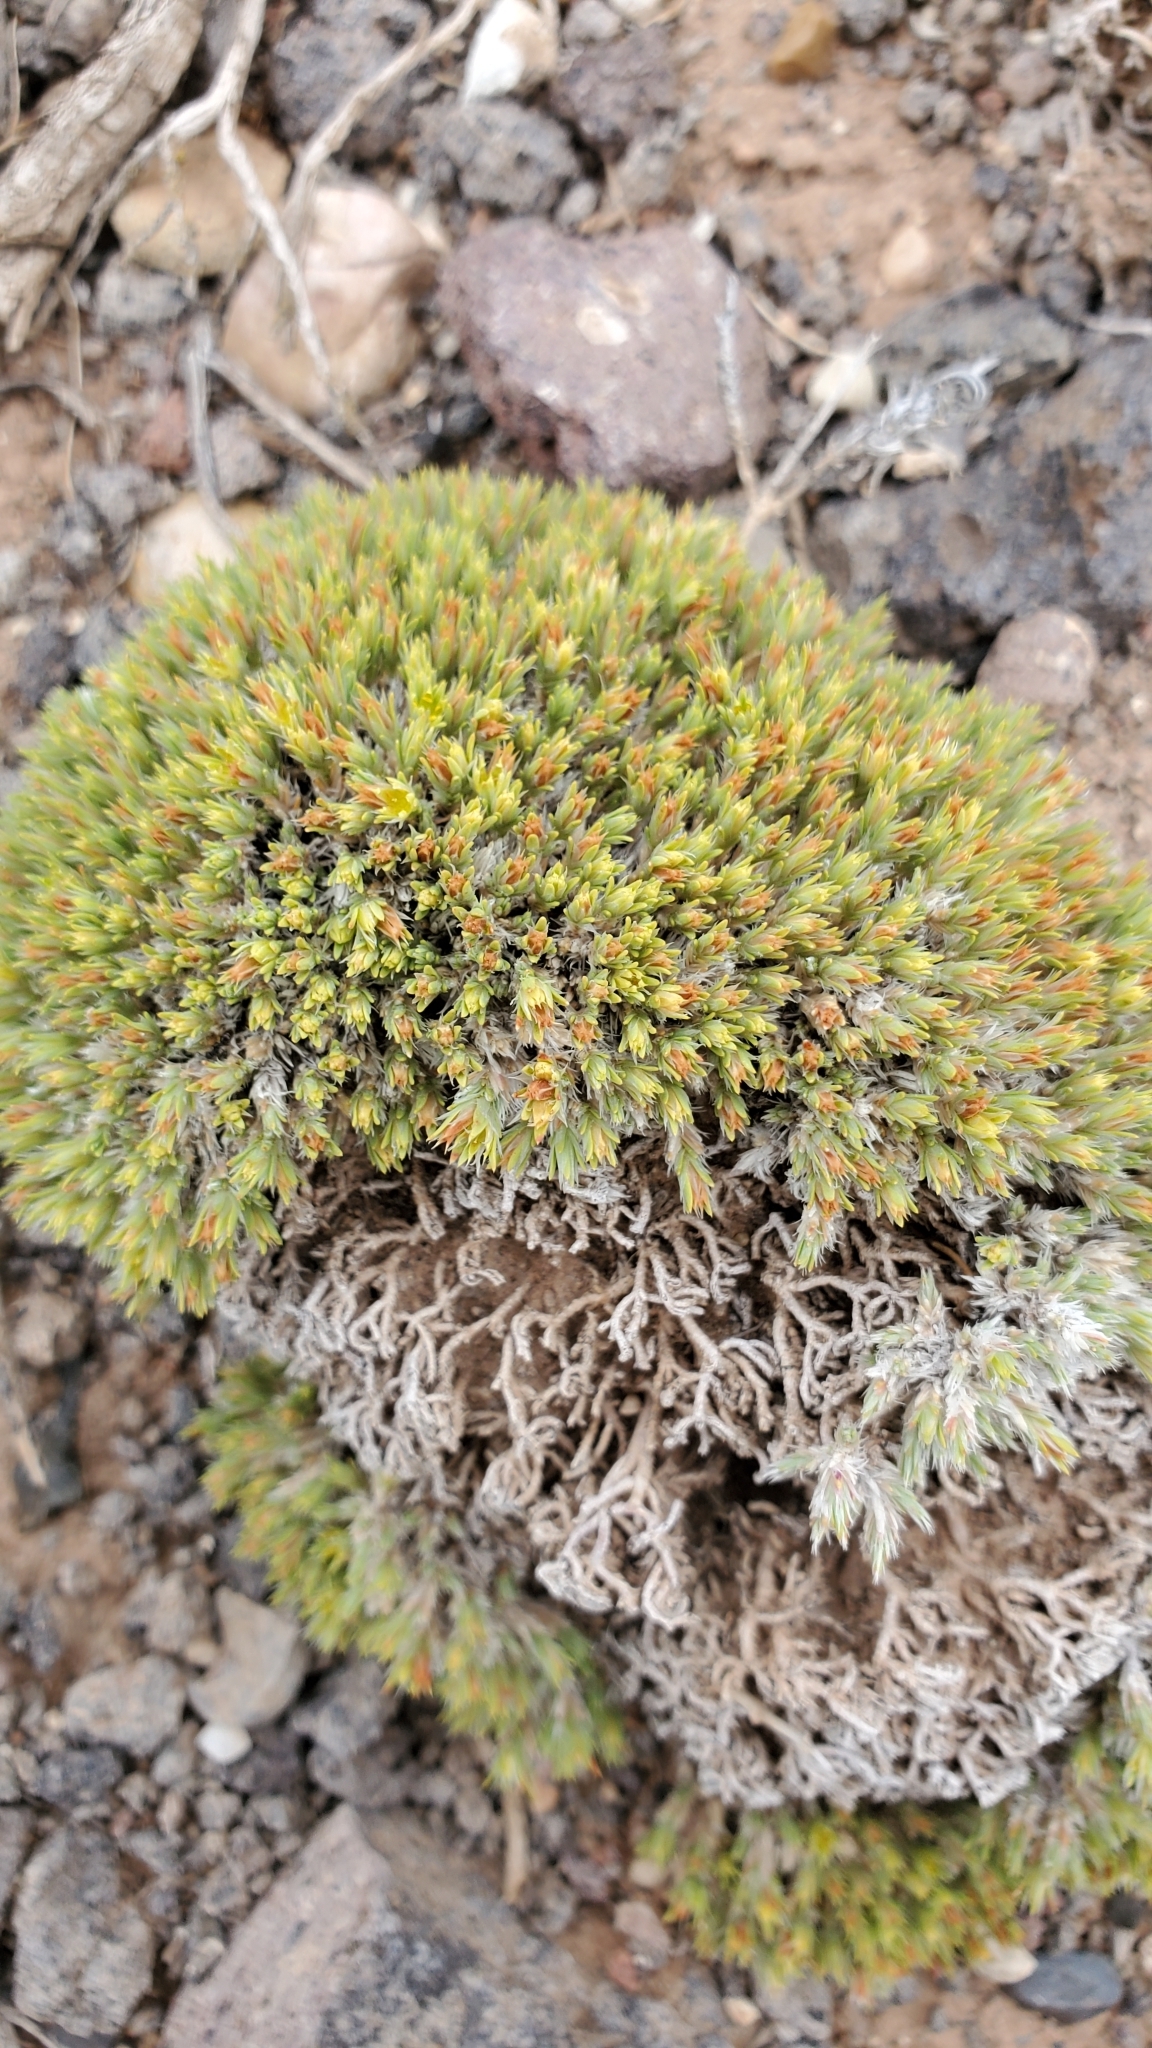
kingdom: Plantae
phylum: Tracheophyta
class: Magnoliopsida
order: Caryophyllales
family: Caryophyllaceae
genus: Paronychia
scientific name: Paronychia sessiliflora
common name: Creeping nailwort
